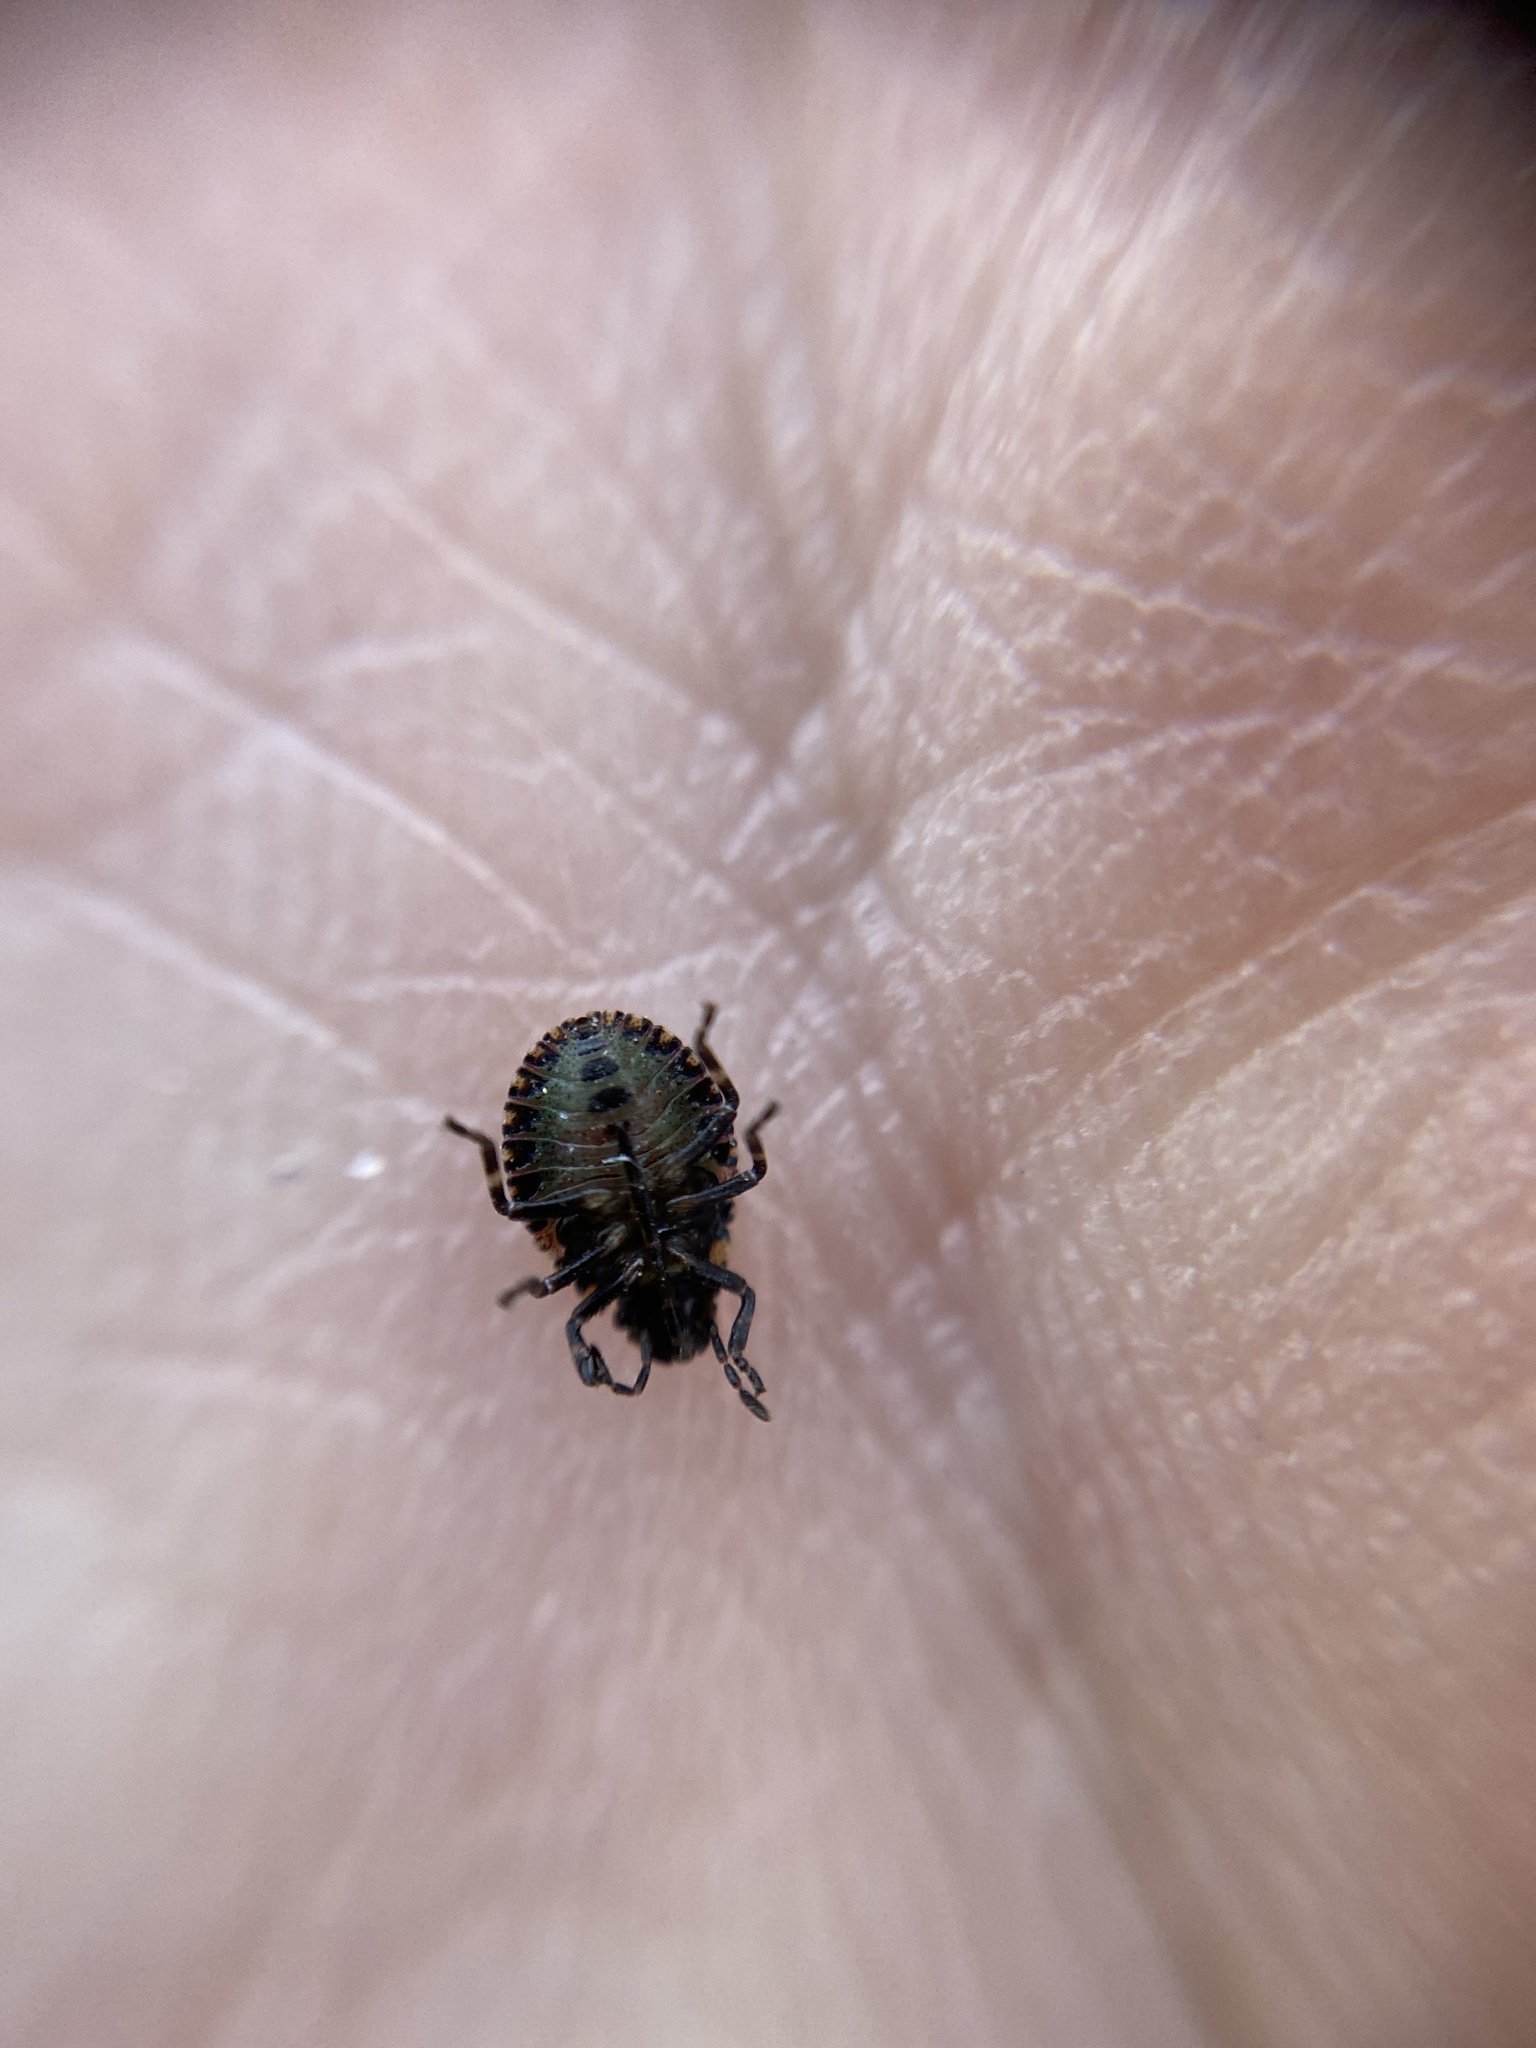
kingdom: Animalia
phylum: Arthropoda
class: Insecta
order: Hemiptera
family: Pentatomidae
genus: Pentatoma
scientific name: Pentatoma rufipes
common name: Forest bug
